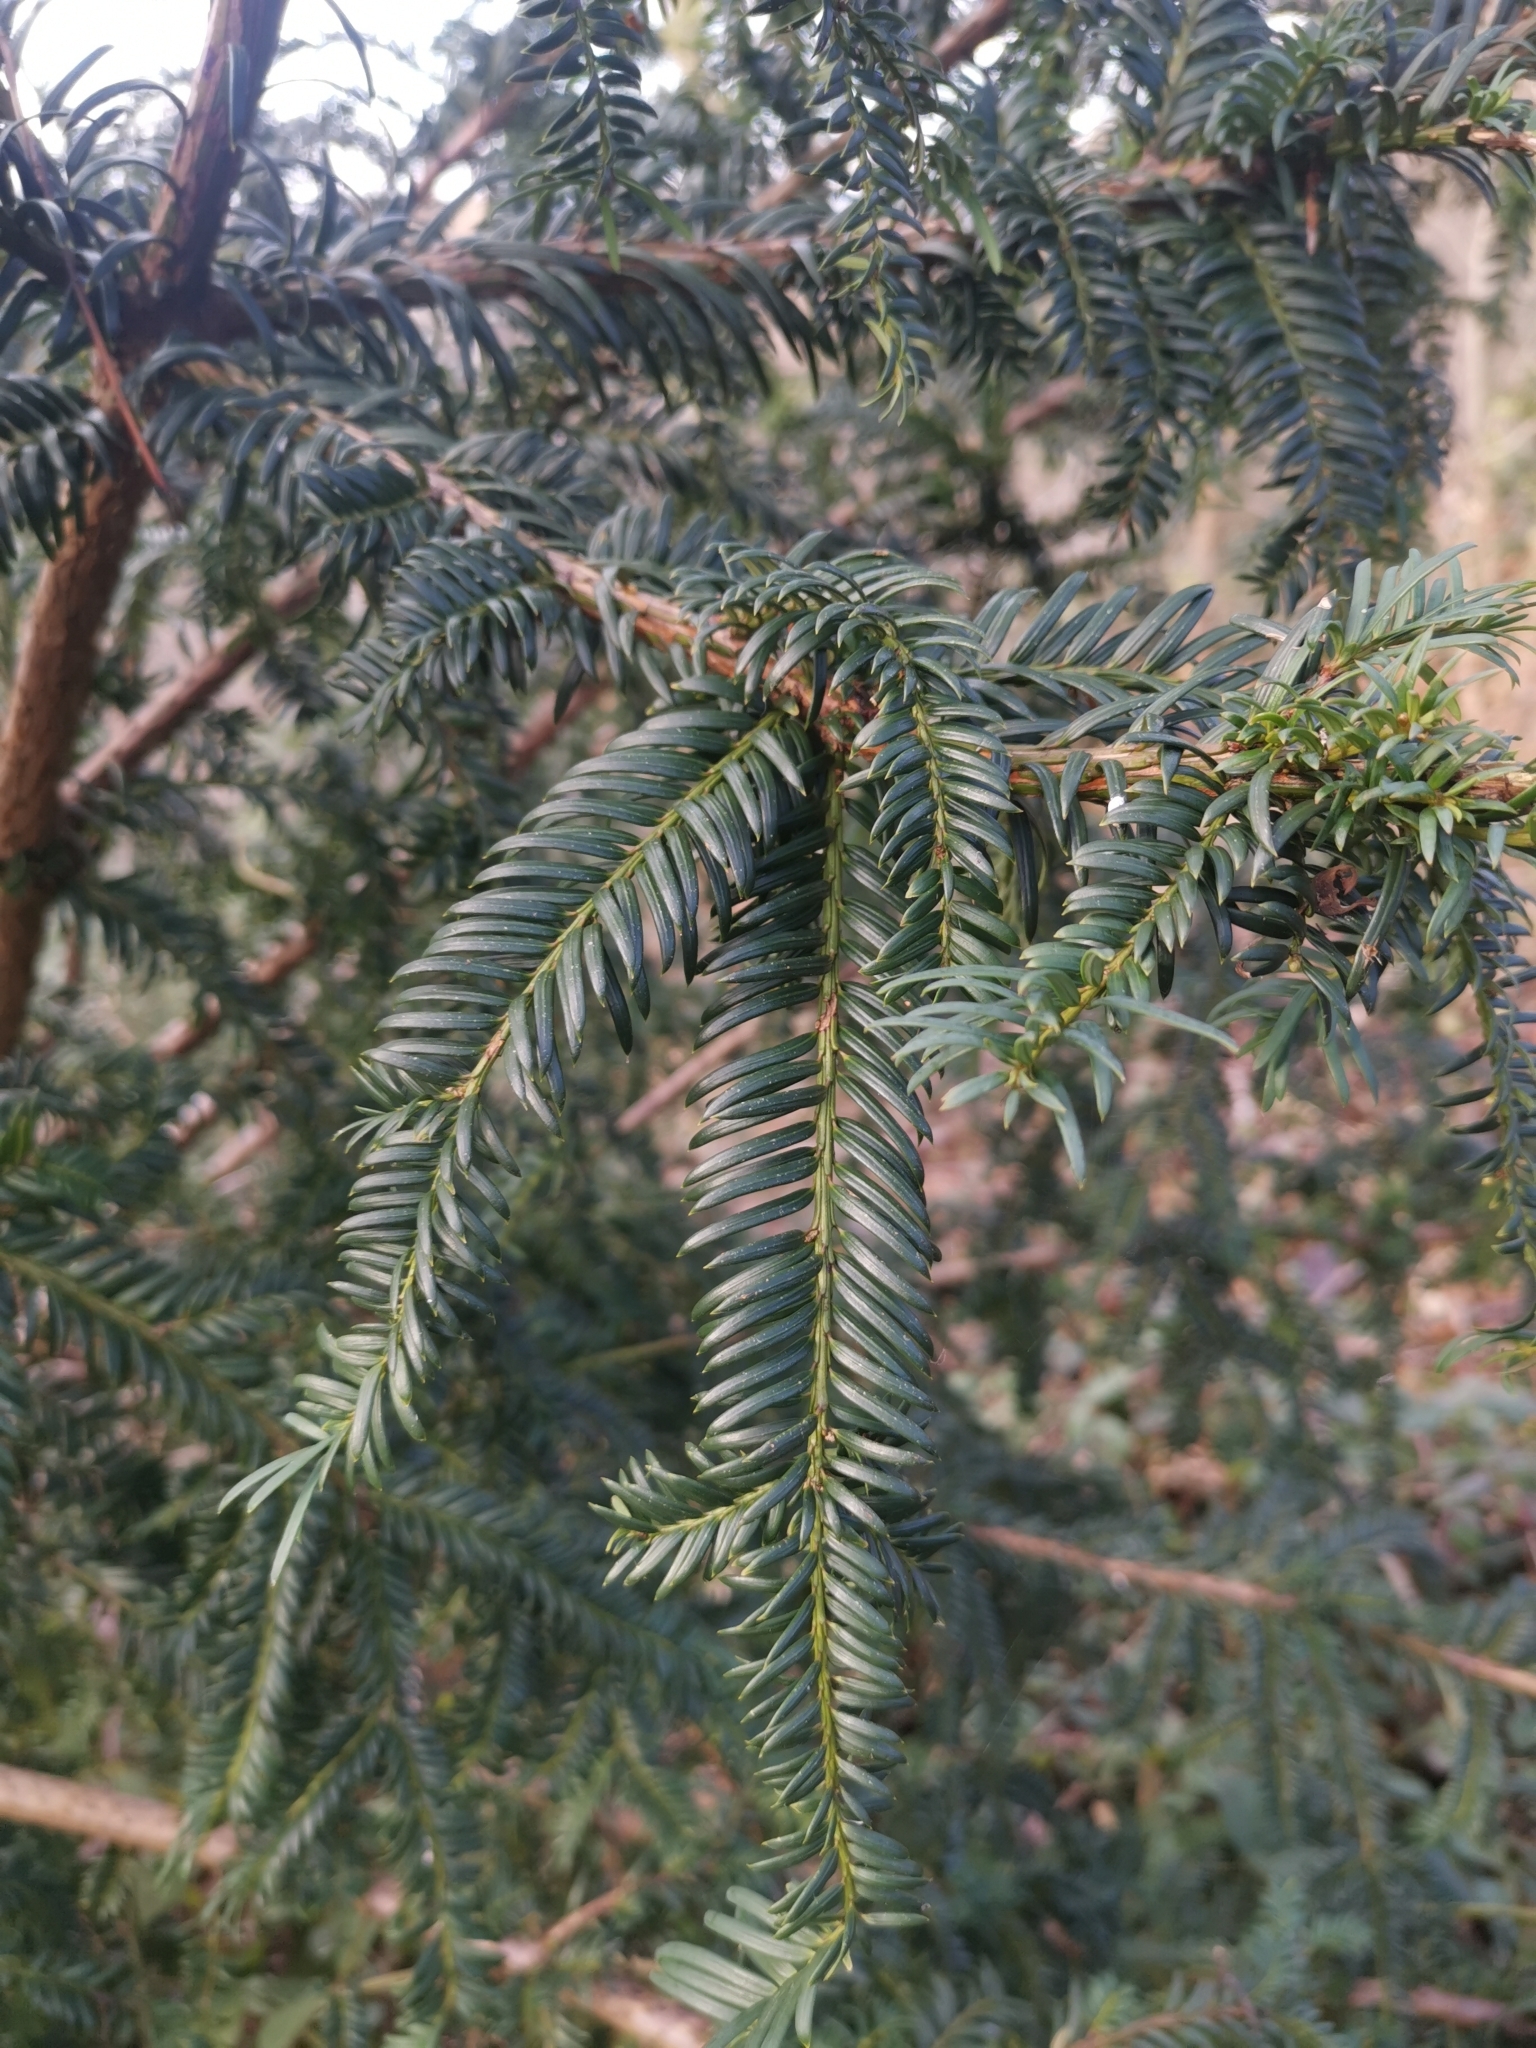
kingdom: Plantae
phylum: Tracheophyta
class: Pinopsida
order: Pinales
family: Taxaceae
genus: Taxus
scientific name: Taxus baccata
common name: Yew
